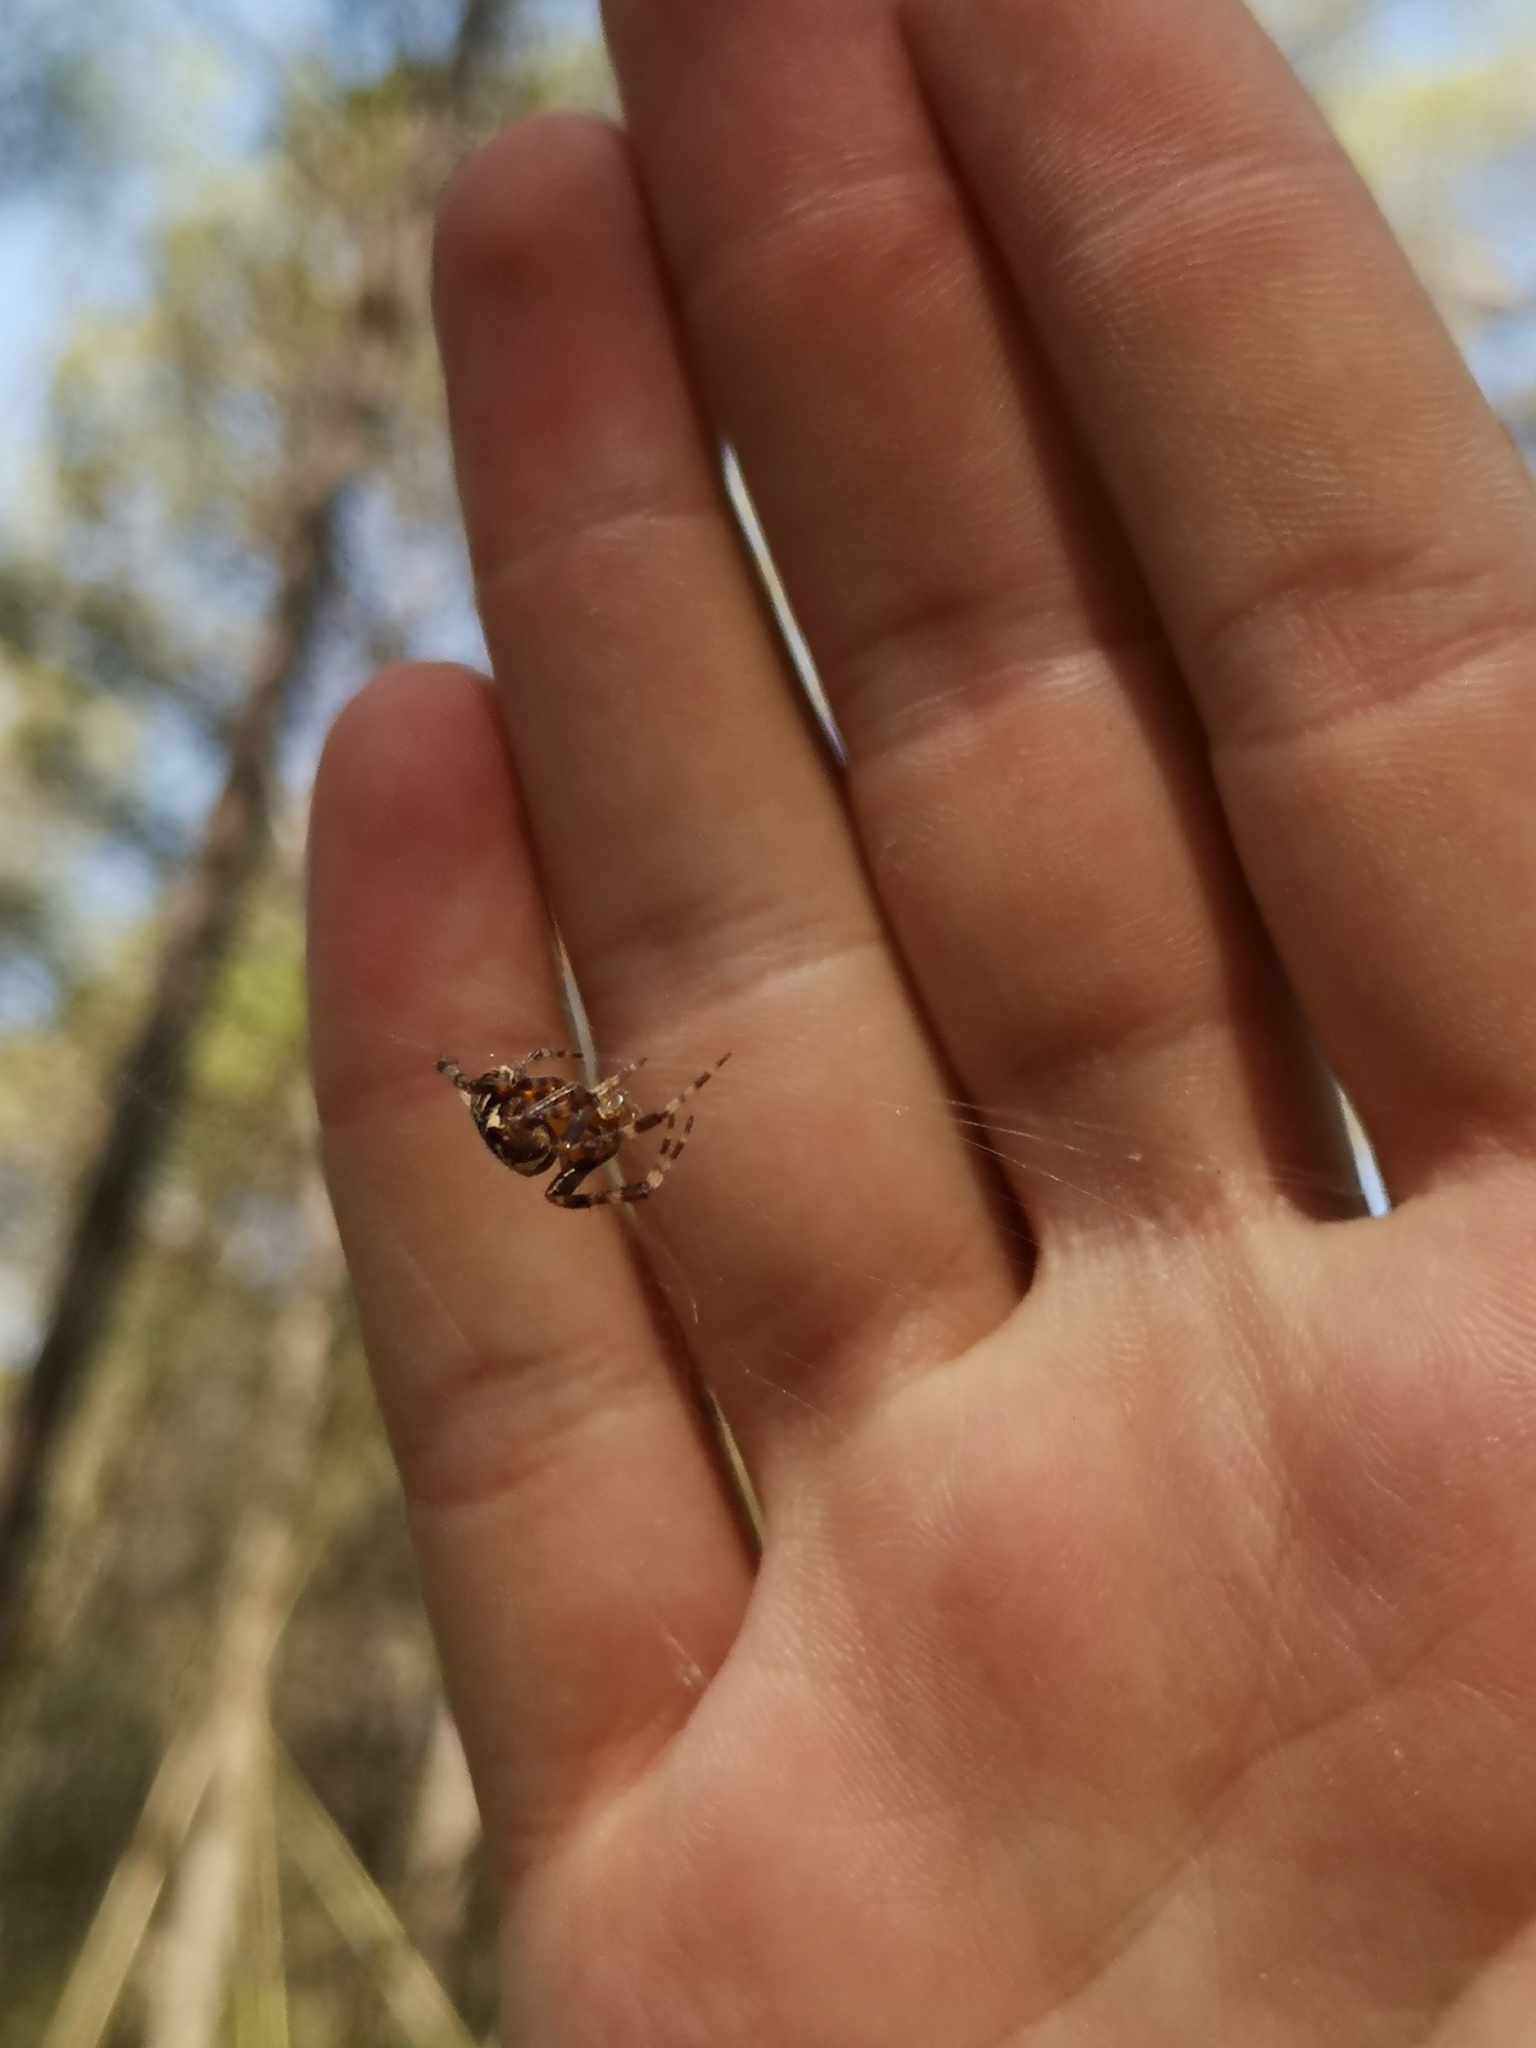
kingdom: Animalia
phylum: Arthropoda
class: Arachnida
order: Araneae
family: Araneidae
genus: Araneus
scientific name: Araneus diadematus
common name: Cross orbweaver
